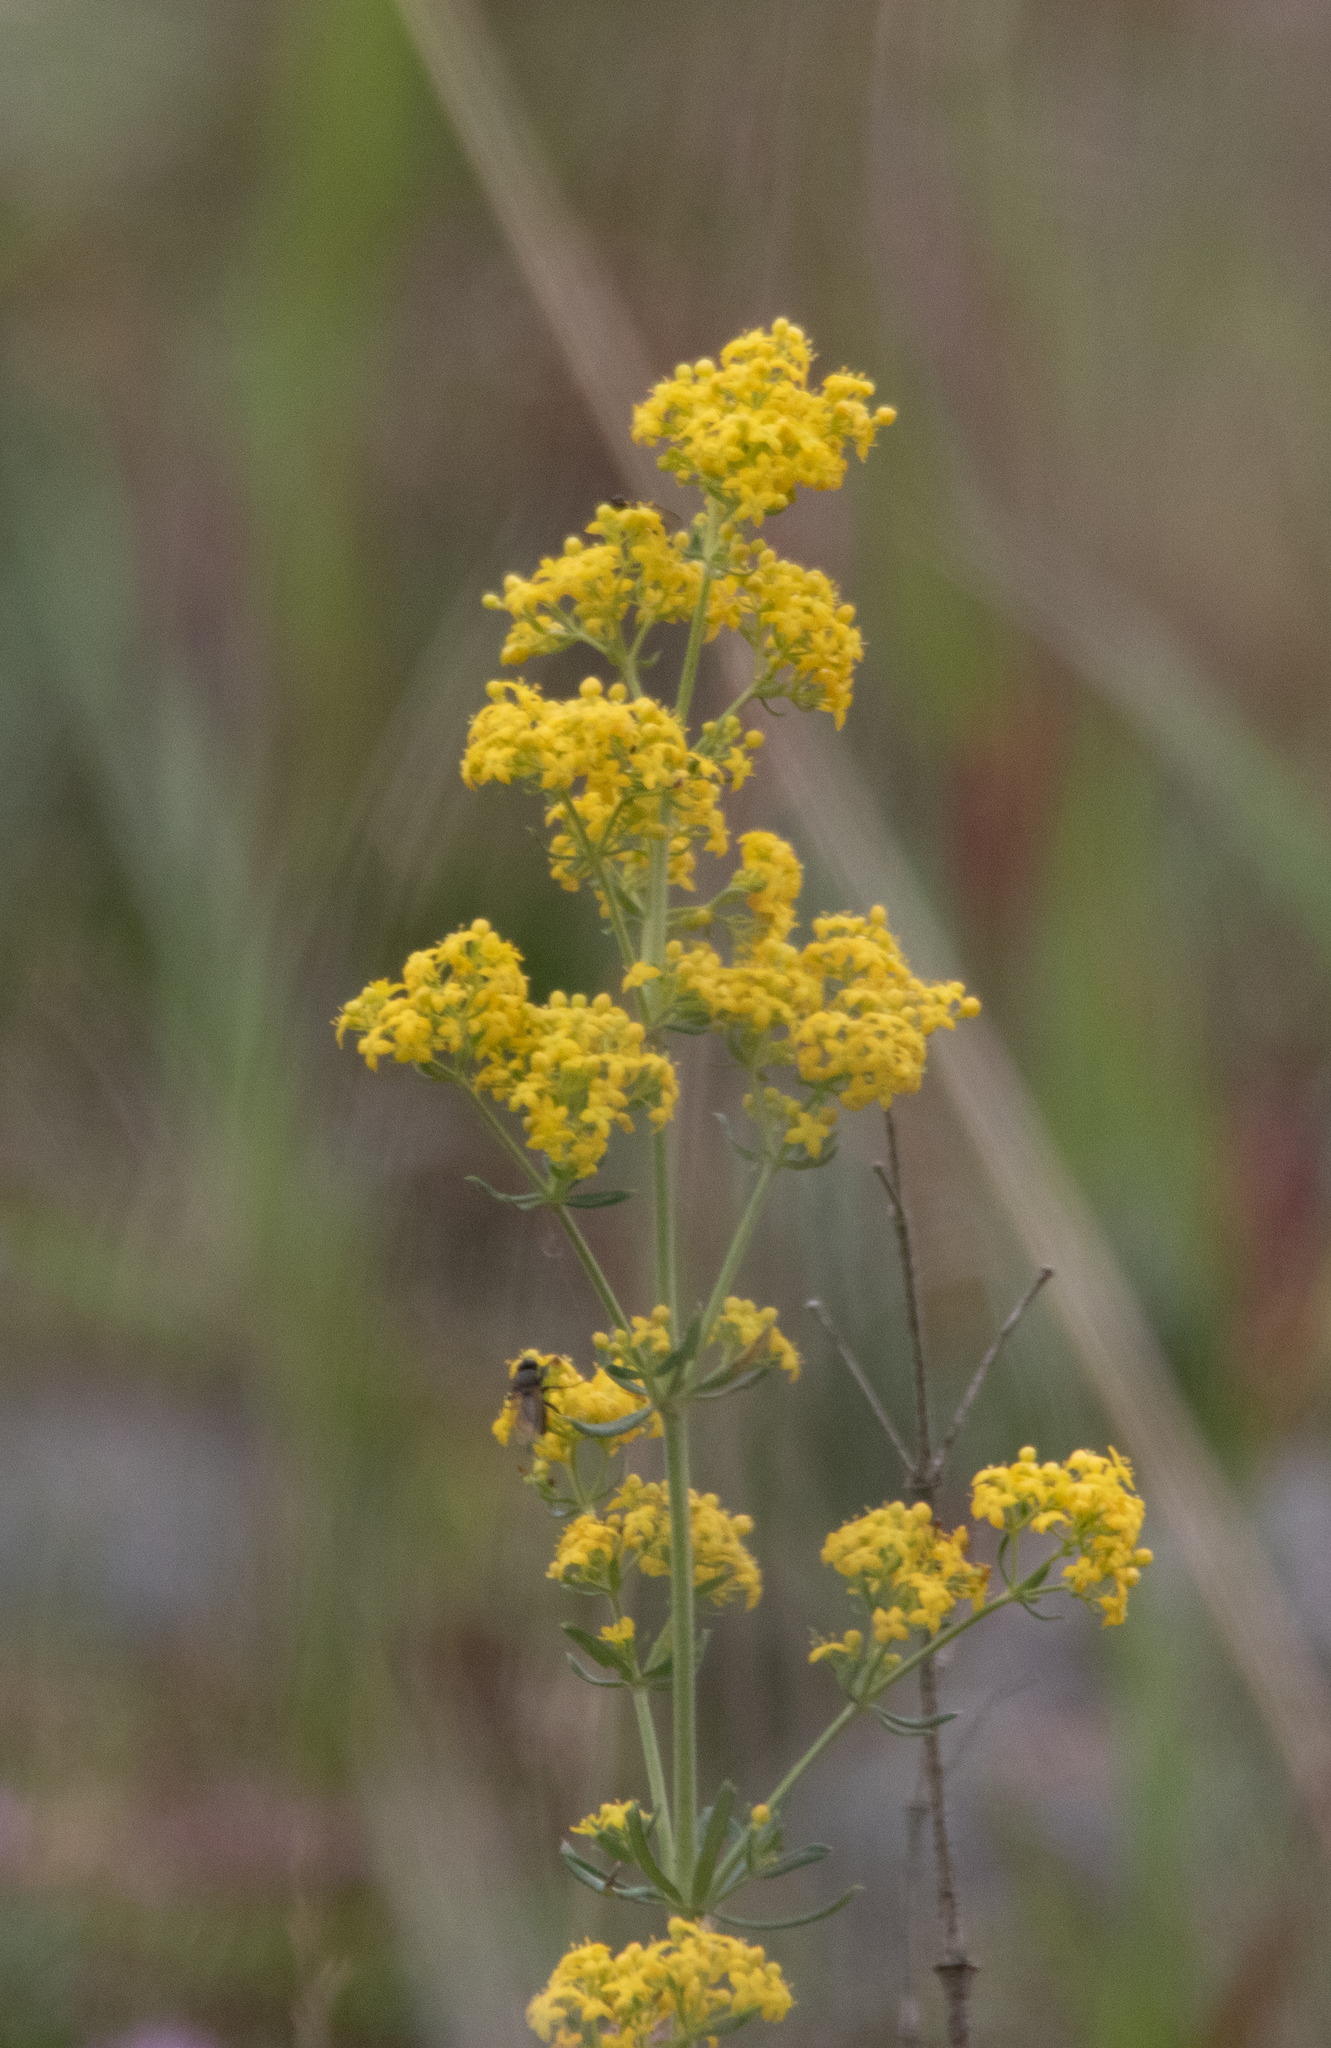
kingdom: Plantae
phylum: Tracheophyta
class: Magnoliopsida
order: Gentianales
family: Rubiaceae
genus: Galium
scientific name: Galium verum
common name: Lady's bedstraw
